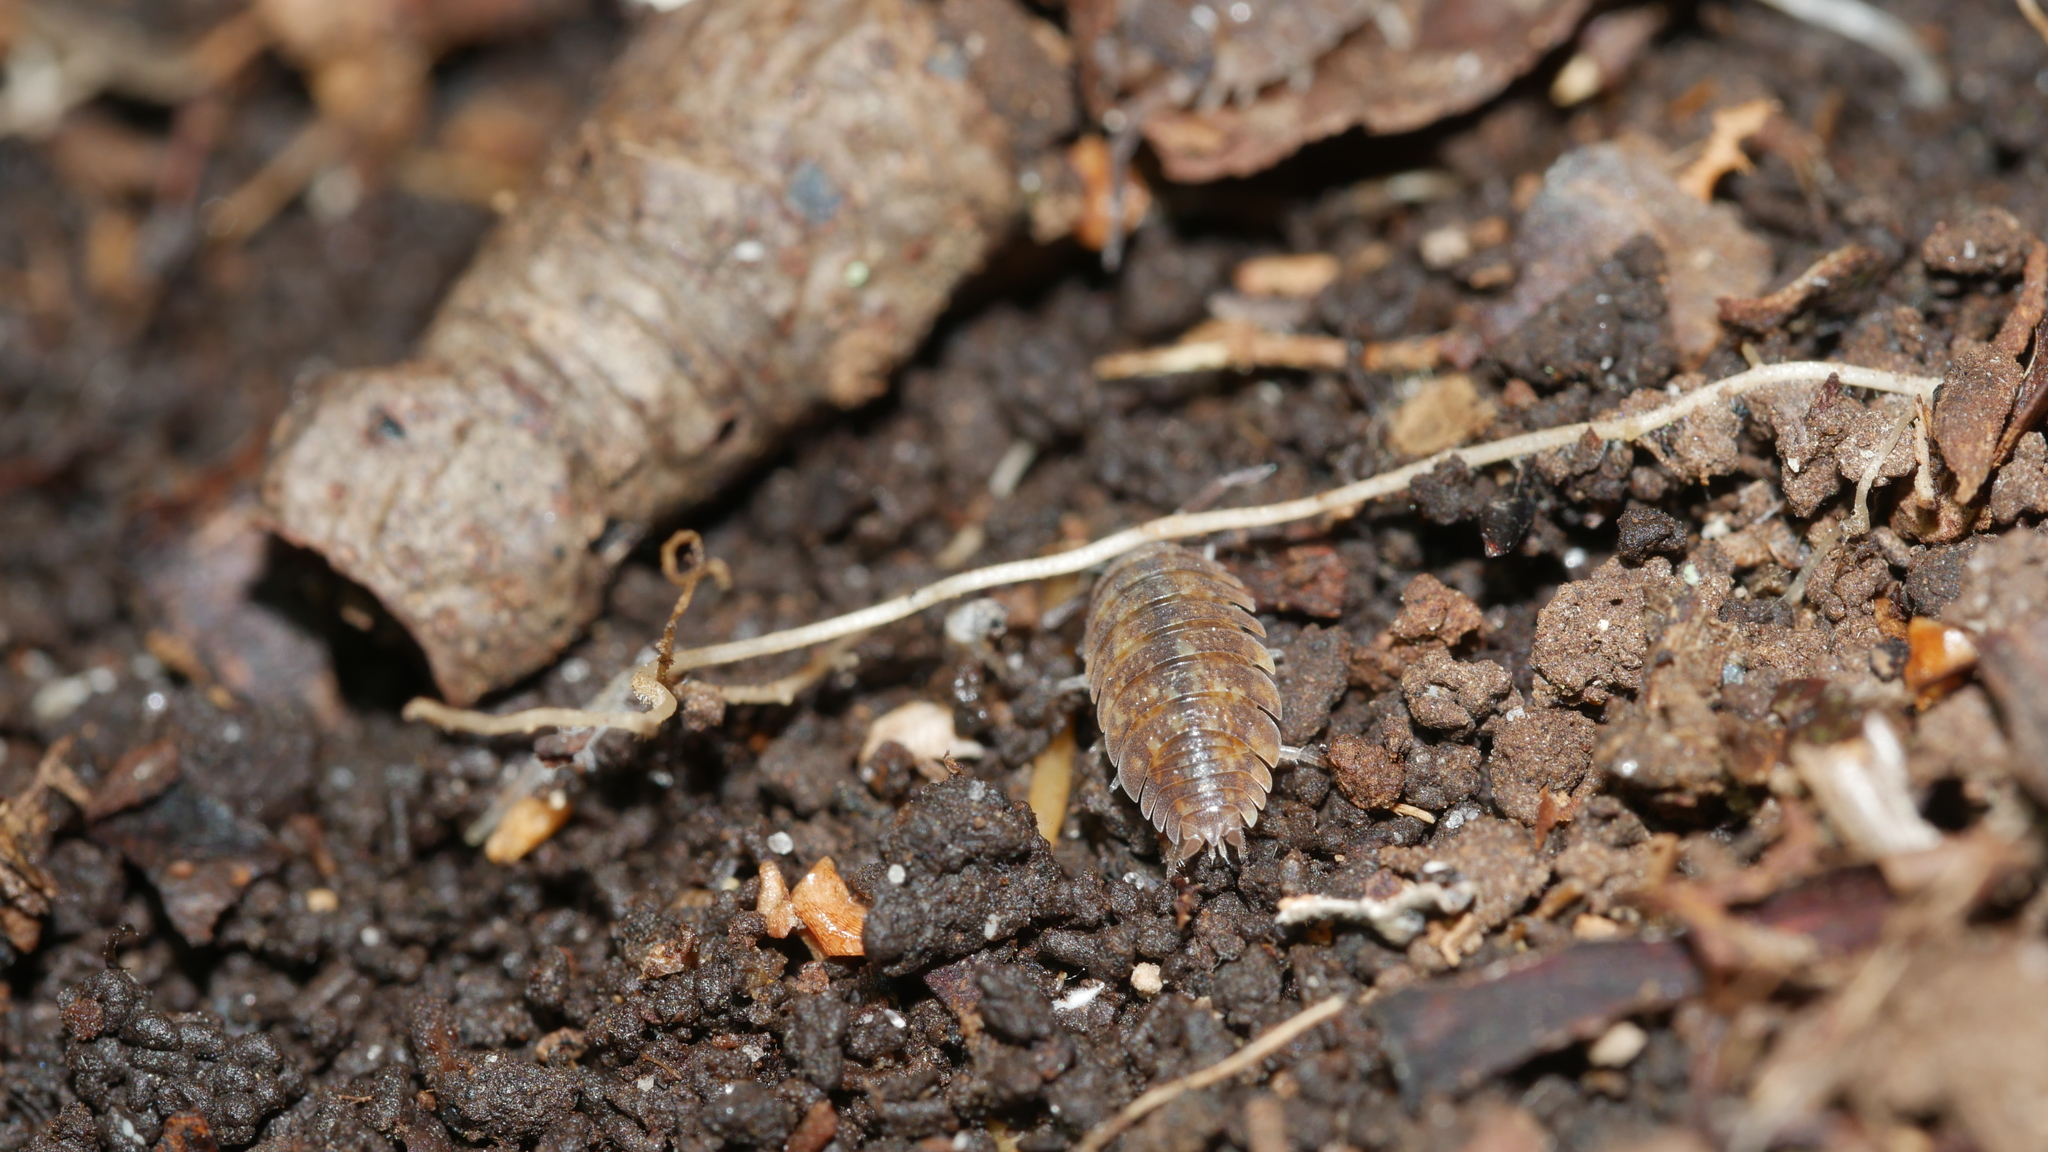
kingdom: Animalia
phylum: Arthropoda
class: Malacostraca
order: Isopoda
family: Porcellionidae
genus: Porcellio
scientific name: Porcellio scaber
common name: Common rough woodlouse
